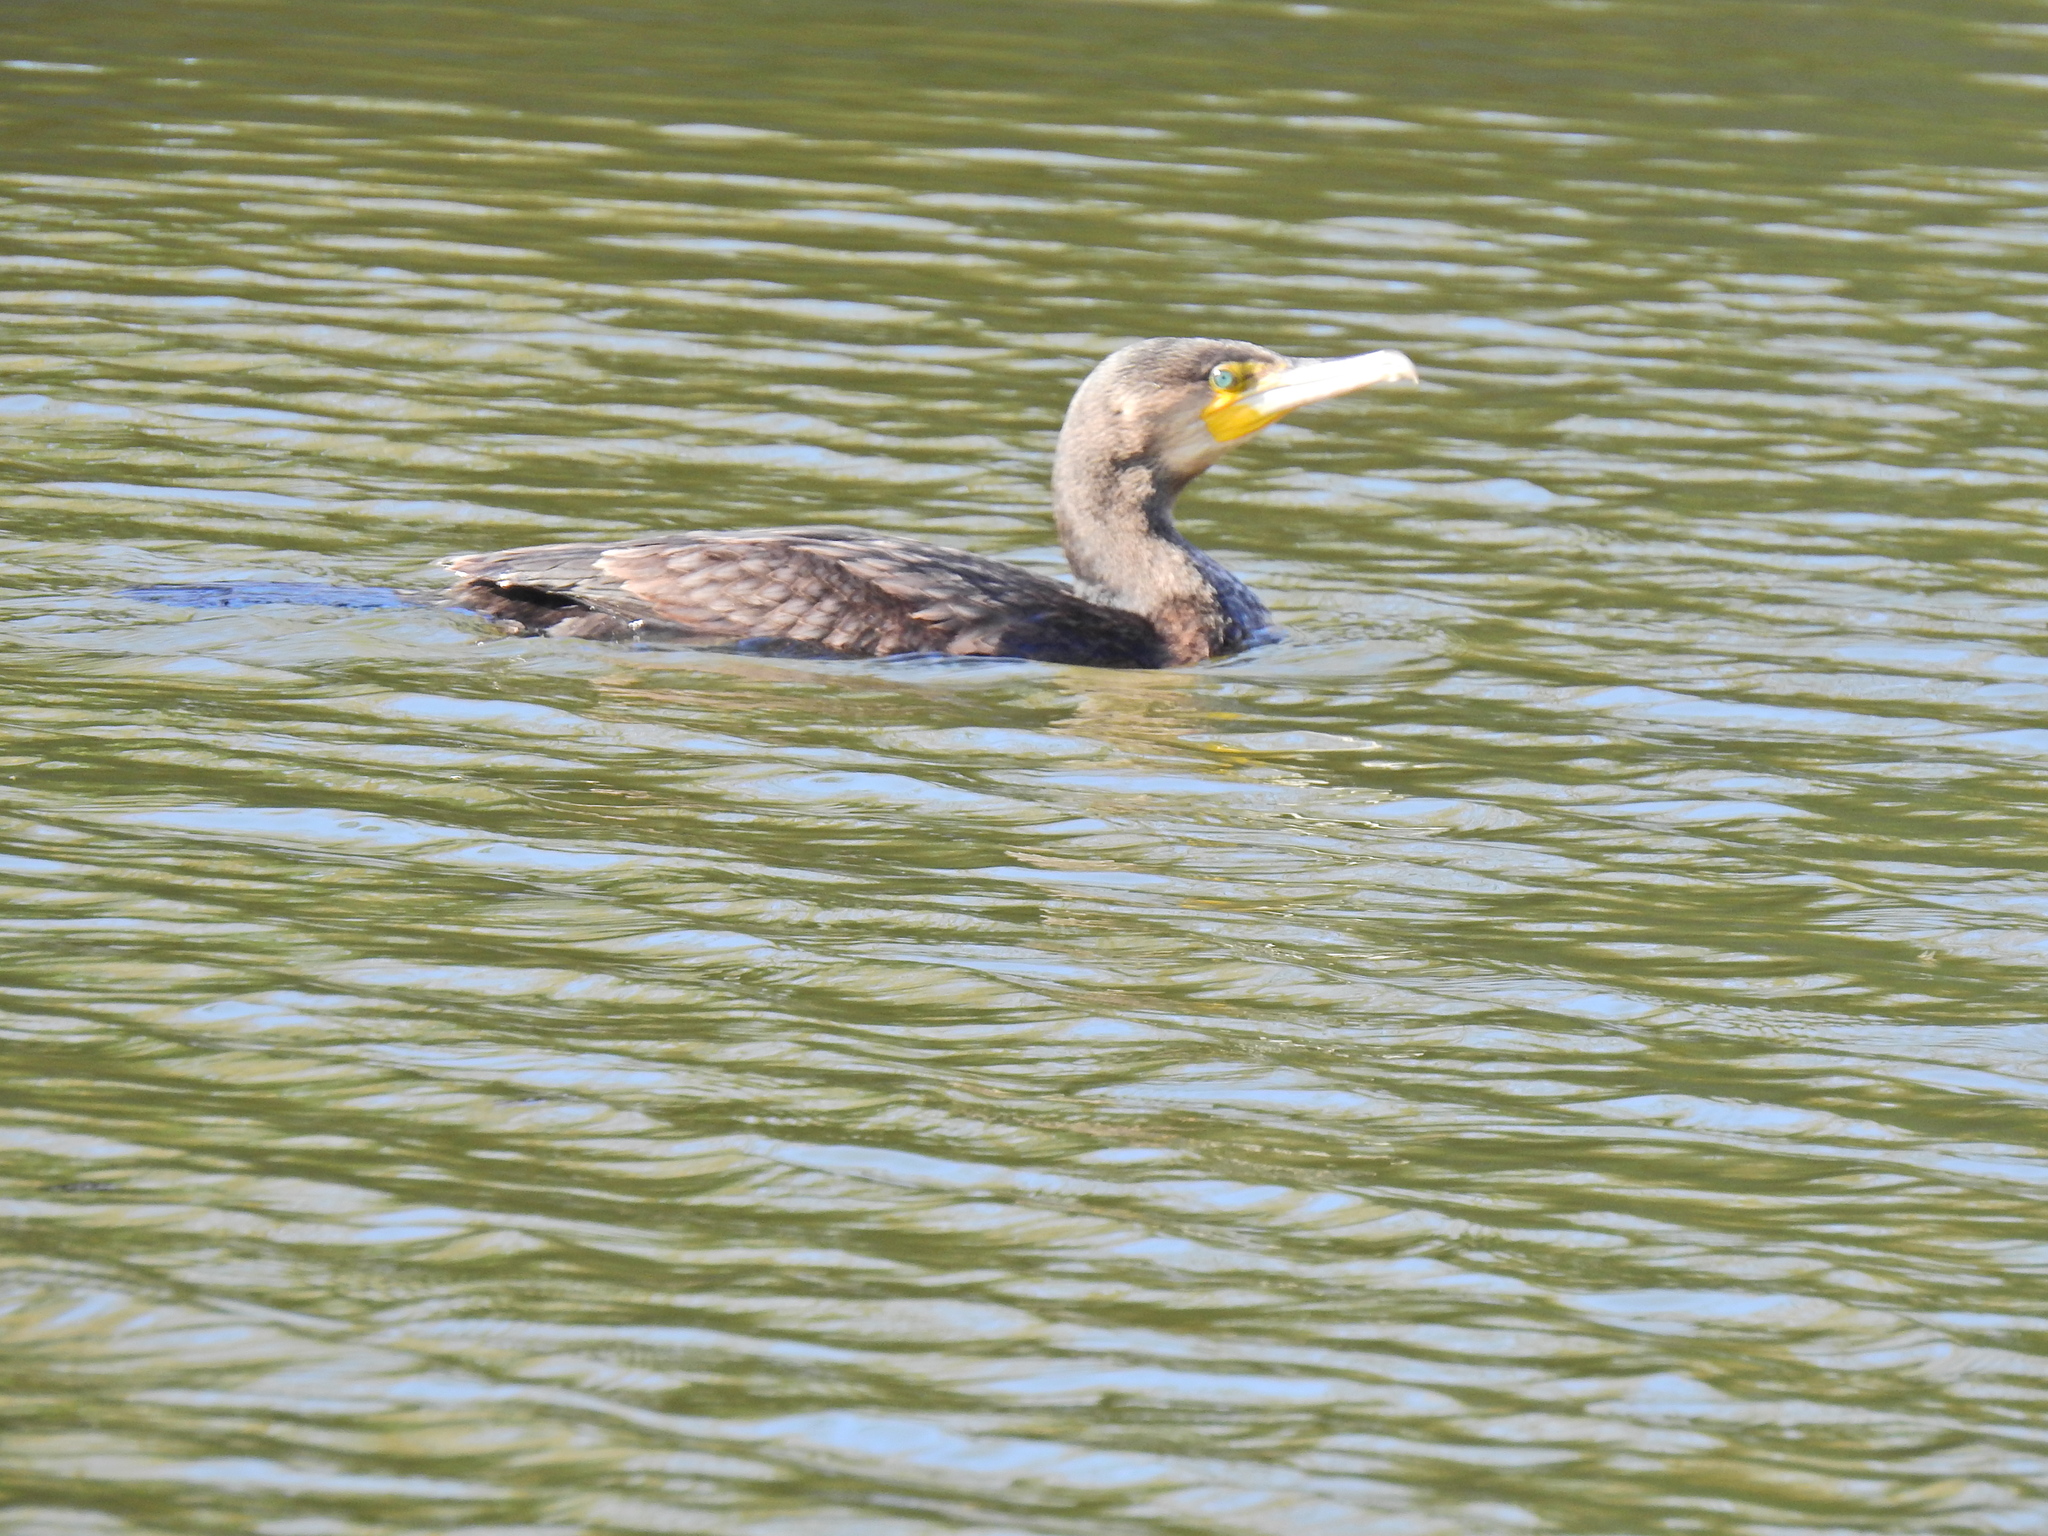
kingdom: Animalia
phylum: Chordata
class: Aves
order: Suliformes
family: Phalacrocoracidae
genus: Phalacrocorax
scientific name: Phalacrocorax carbo
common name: Great cormorant
